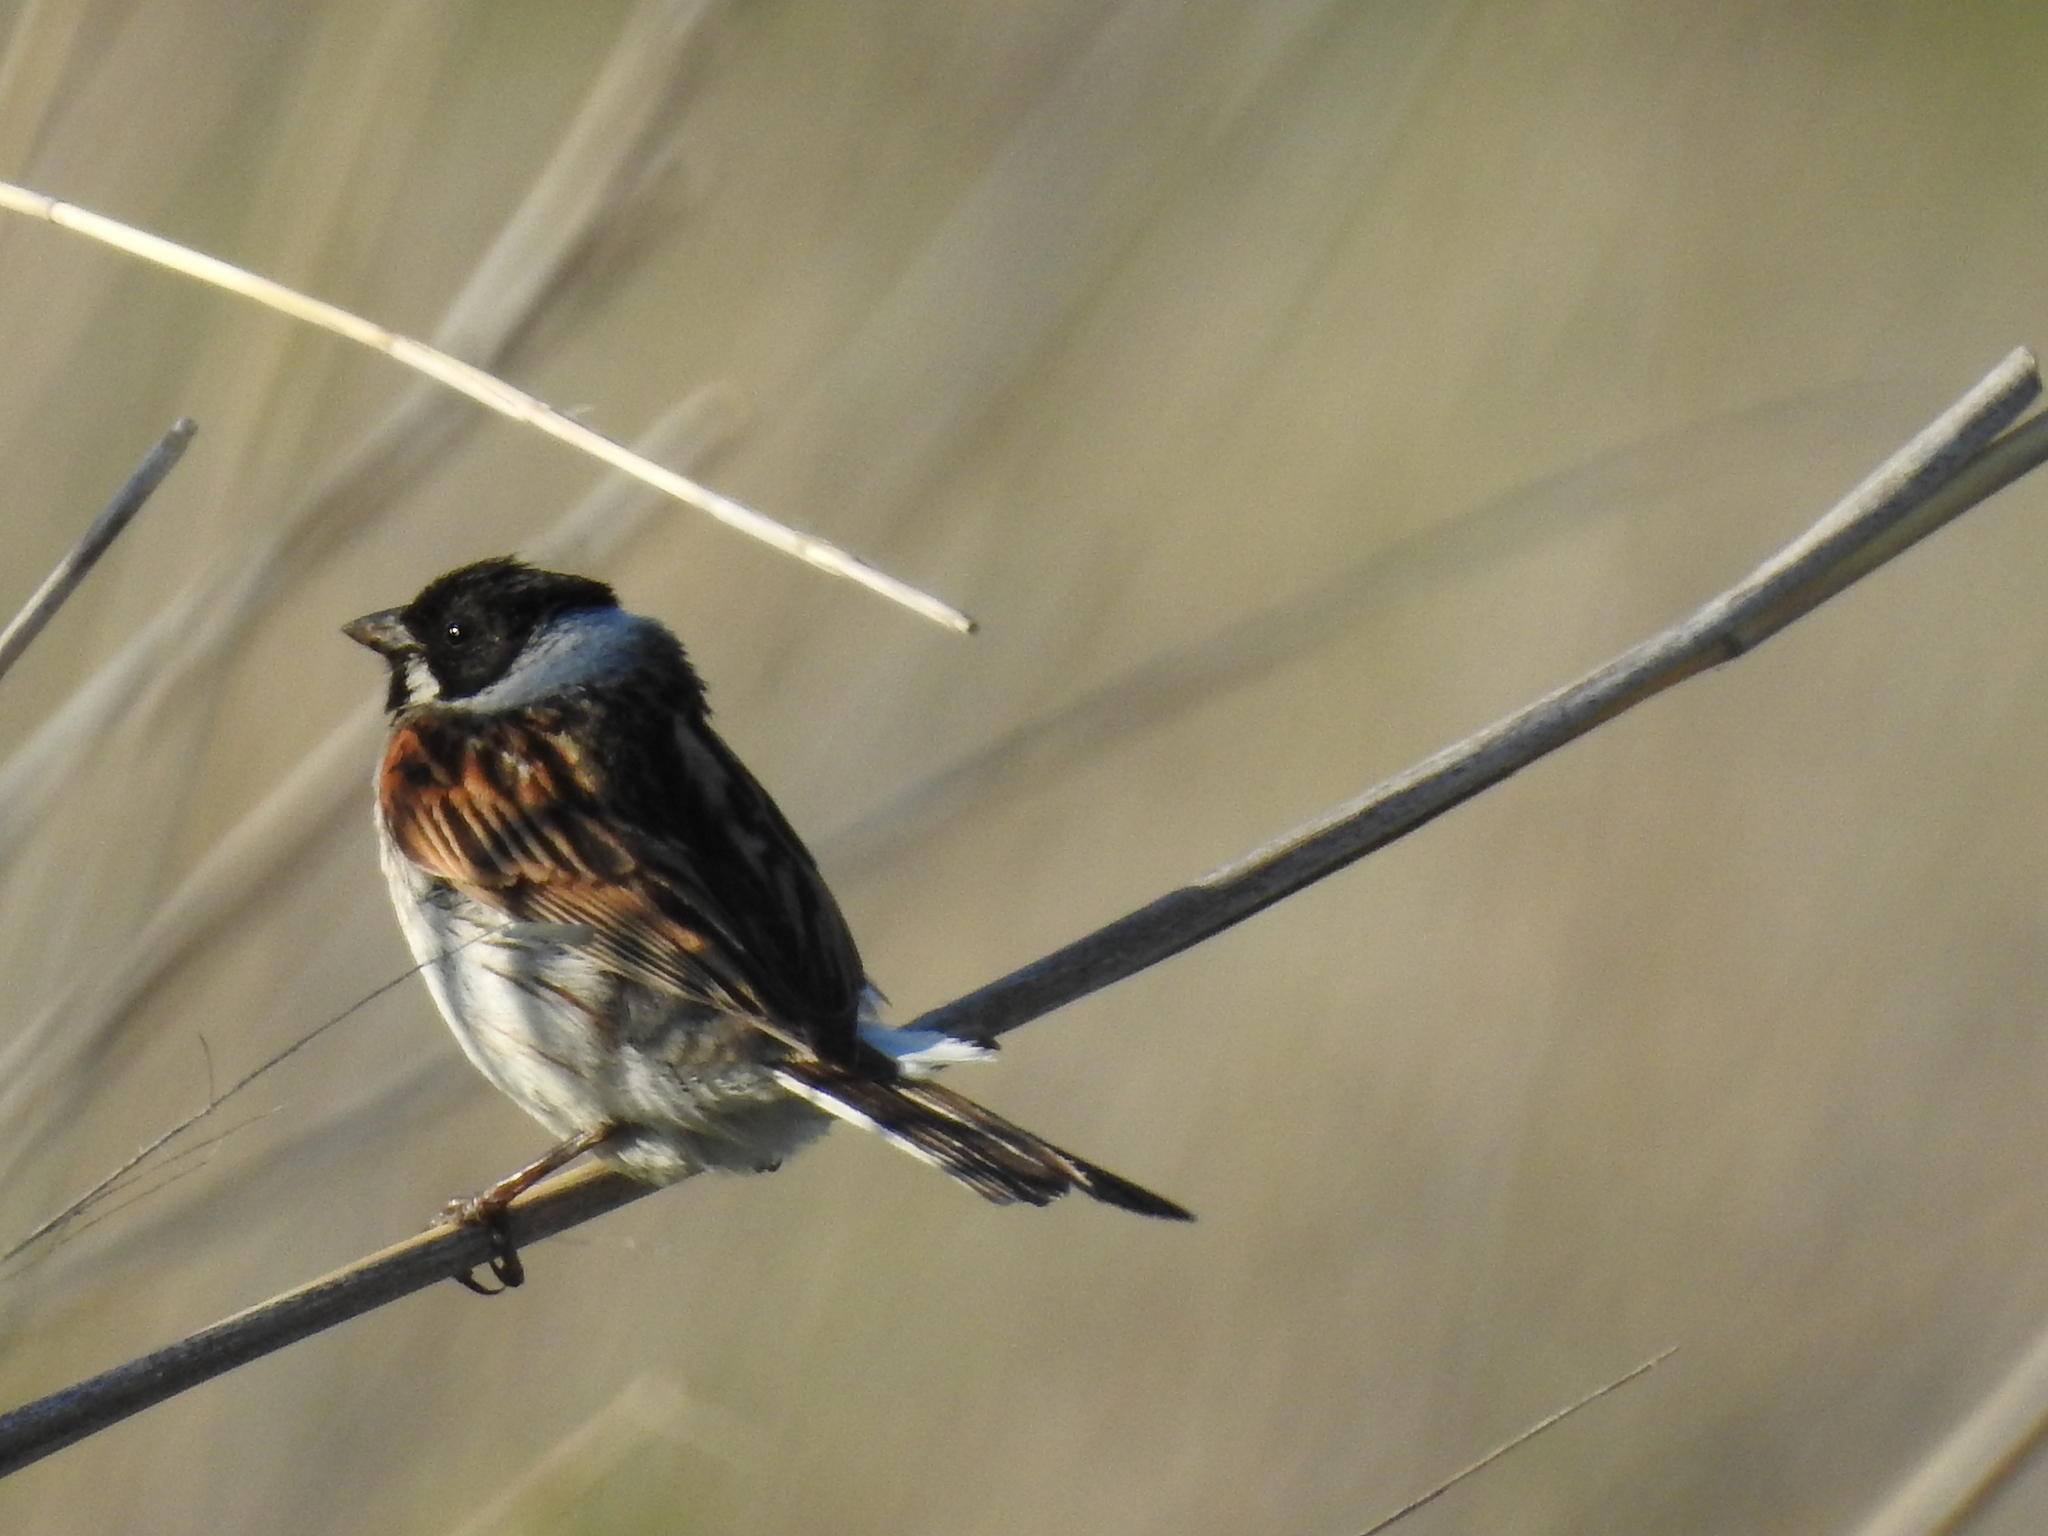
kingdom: Animalia
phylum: Chordata
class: Aves
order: Passeriformes
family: Emberizidae
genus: Emberiza
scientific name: Emberiza schoeniclus
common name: Reed bunting
